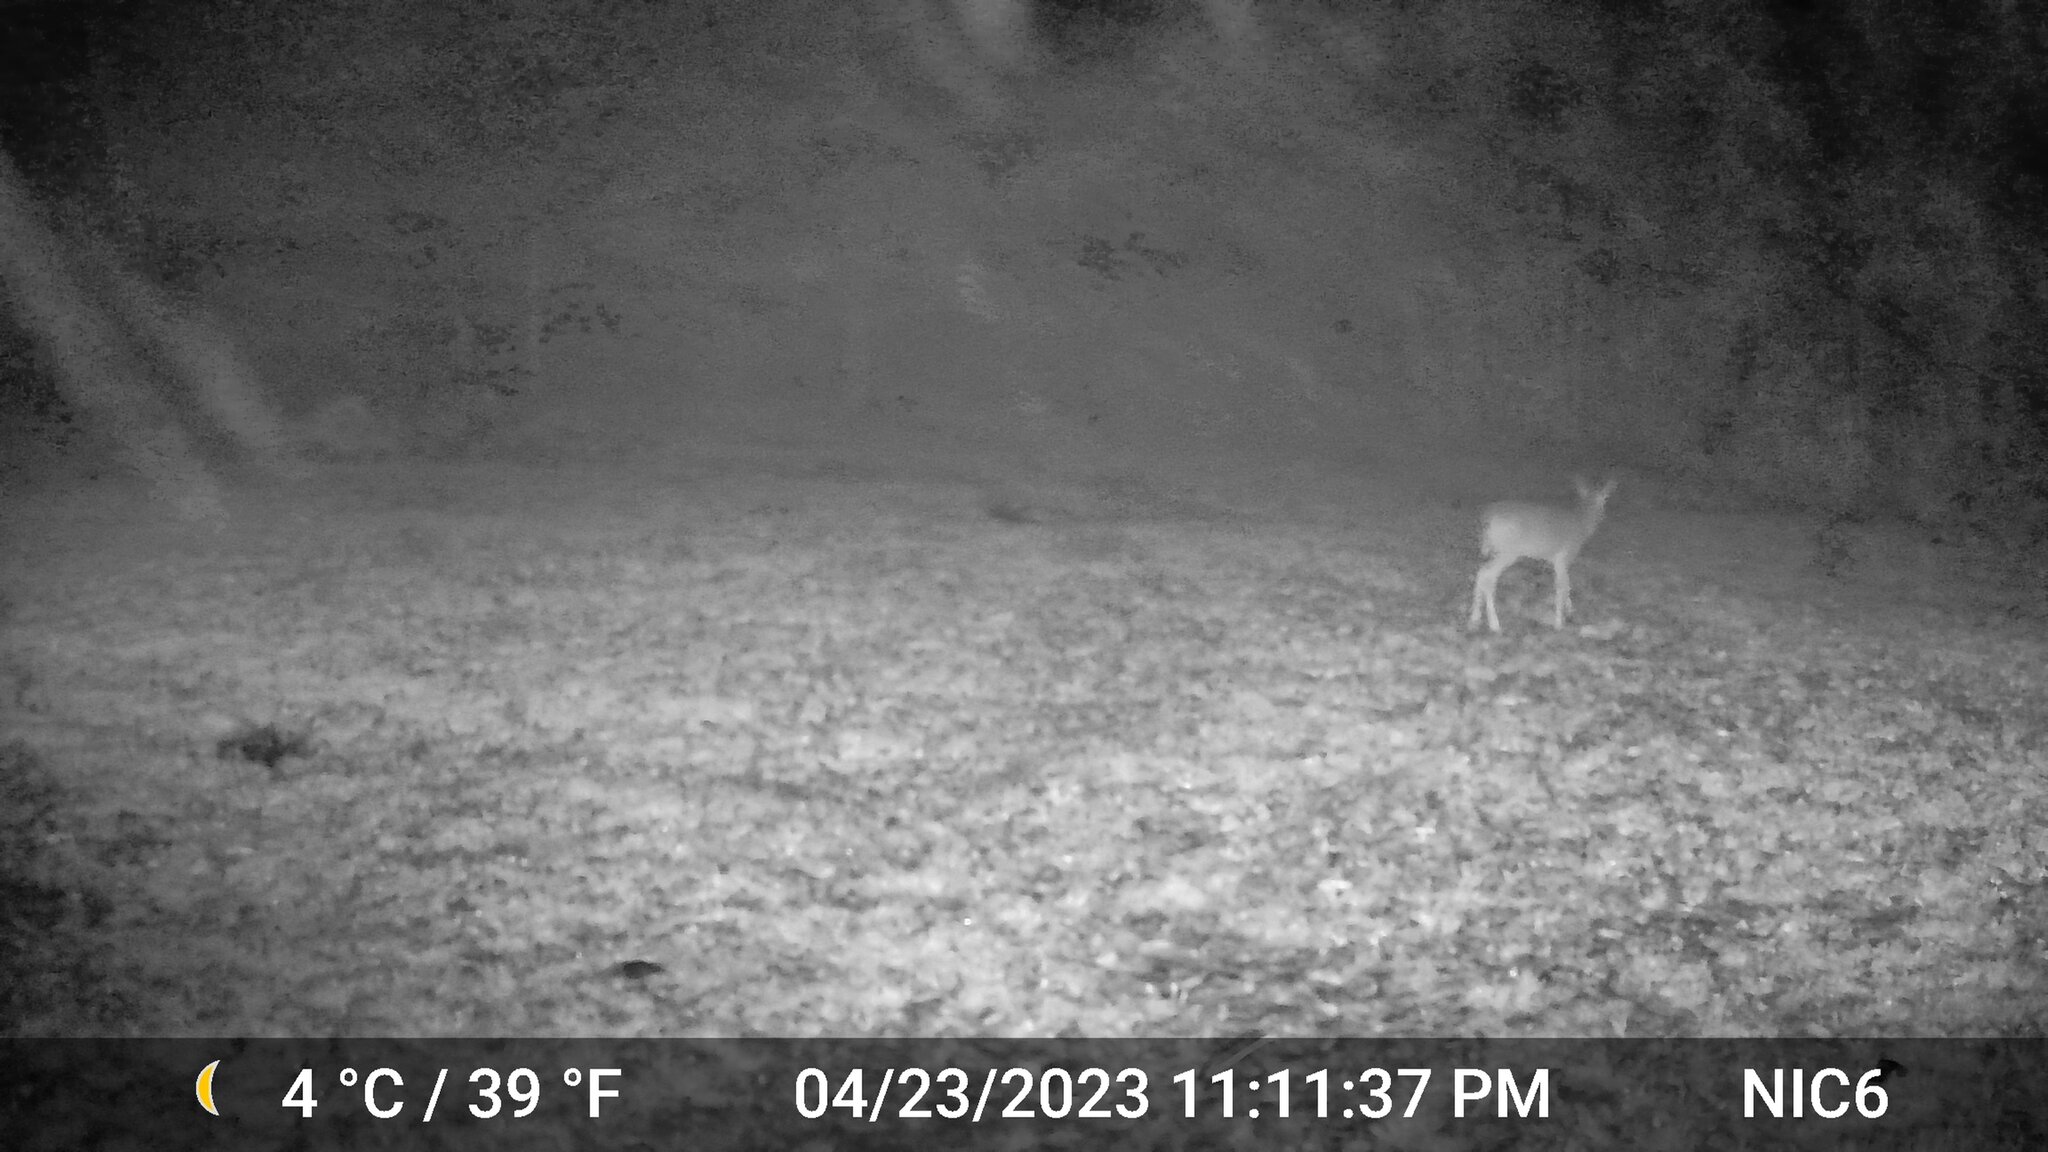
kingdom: Animalia
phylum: Chordata
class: Mammalia
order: Artiodactyla
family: Cervidae
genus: Odocoileus
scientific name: Odocoileus virginianus
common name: White-tailed deer
